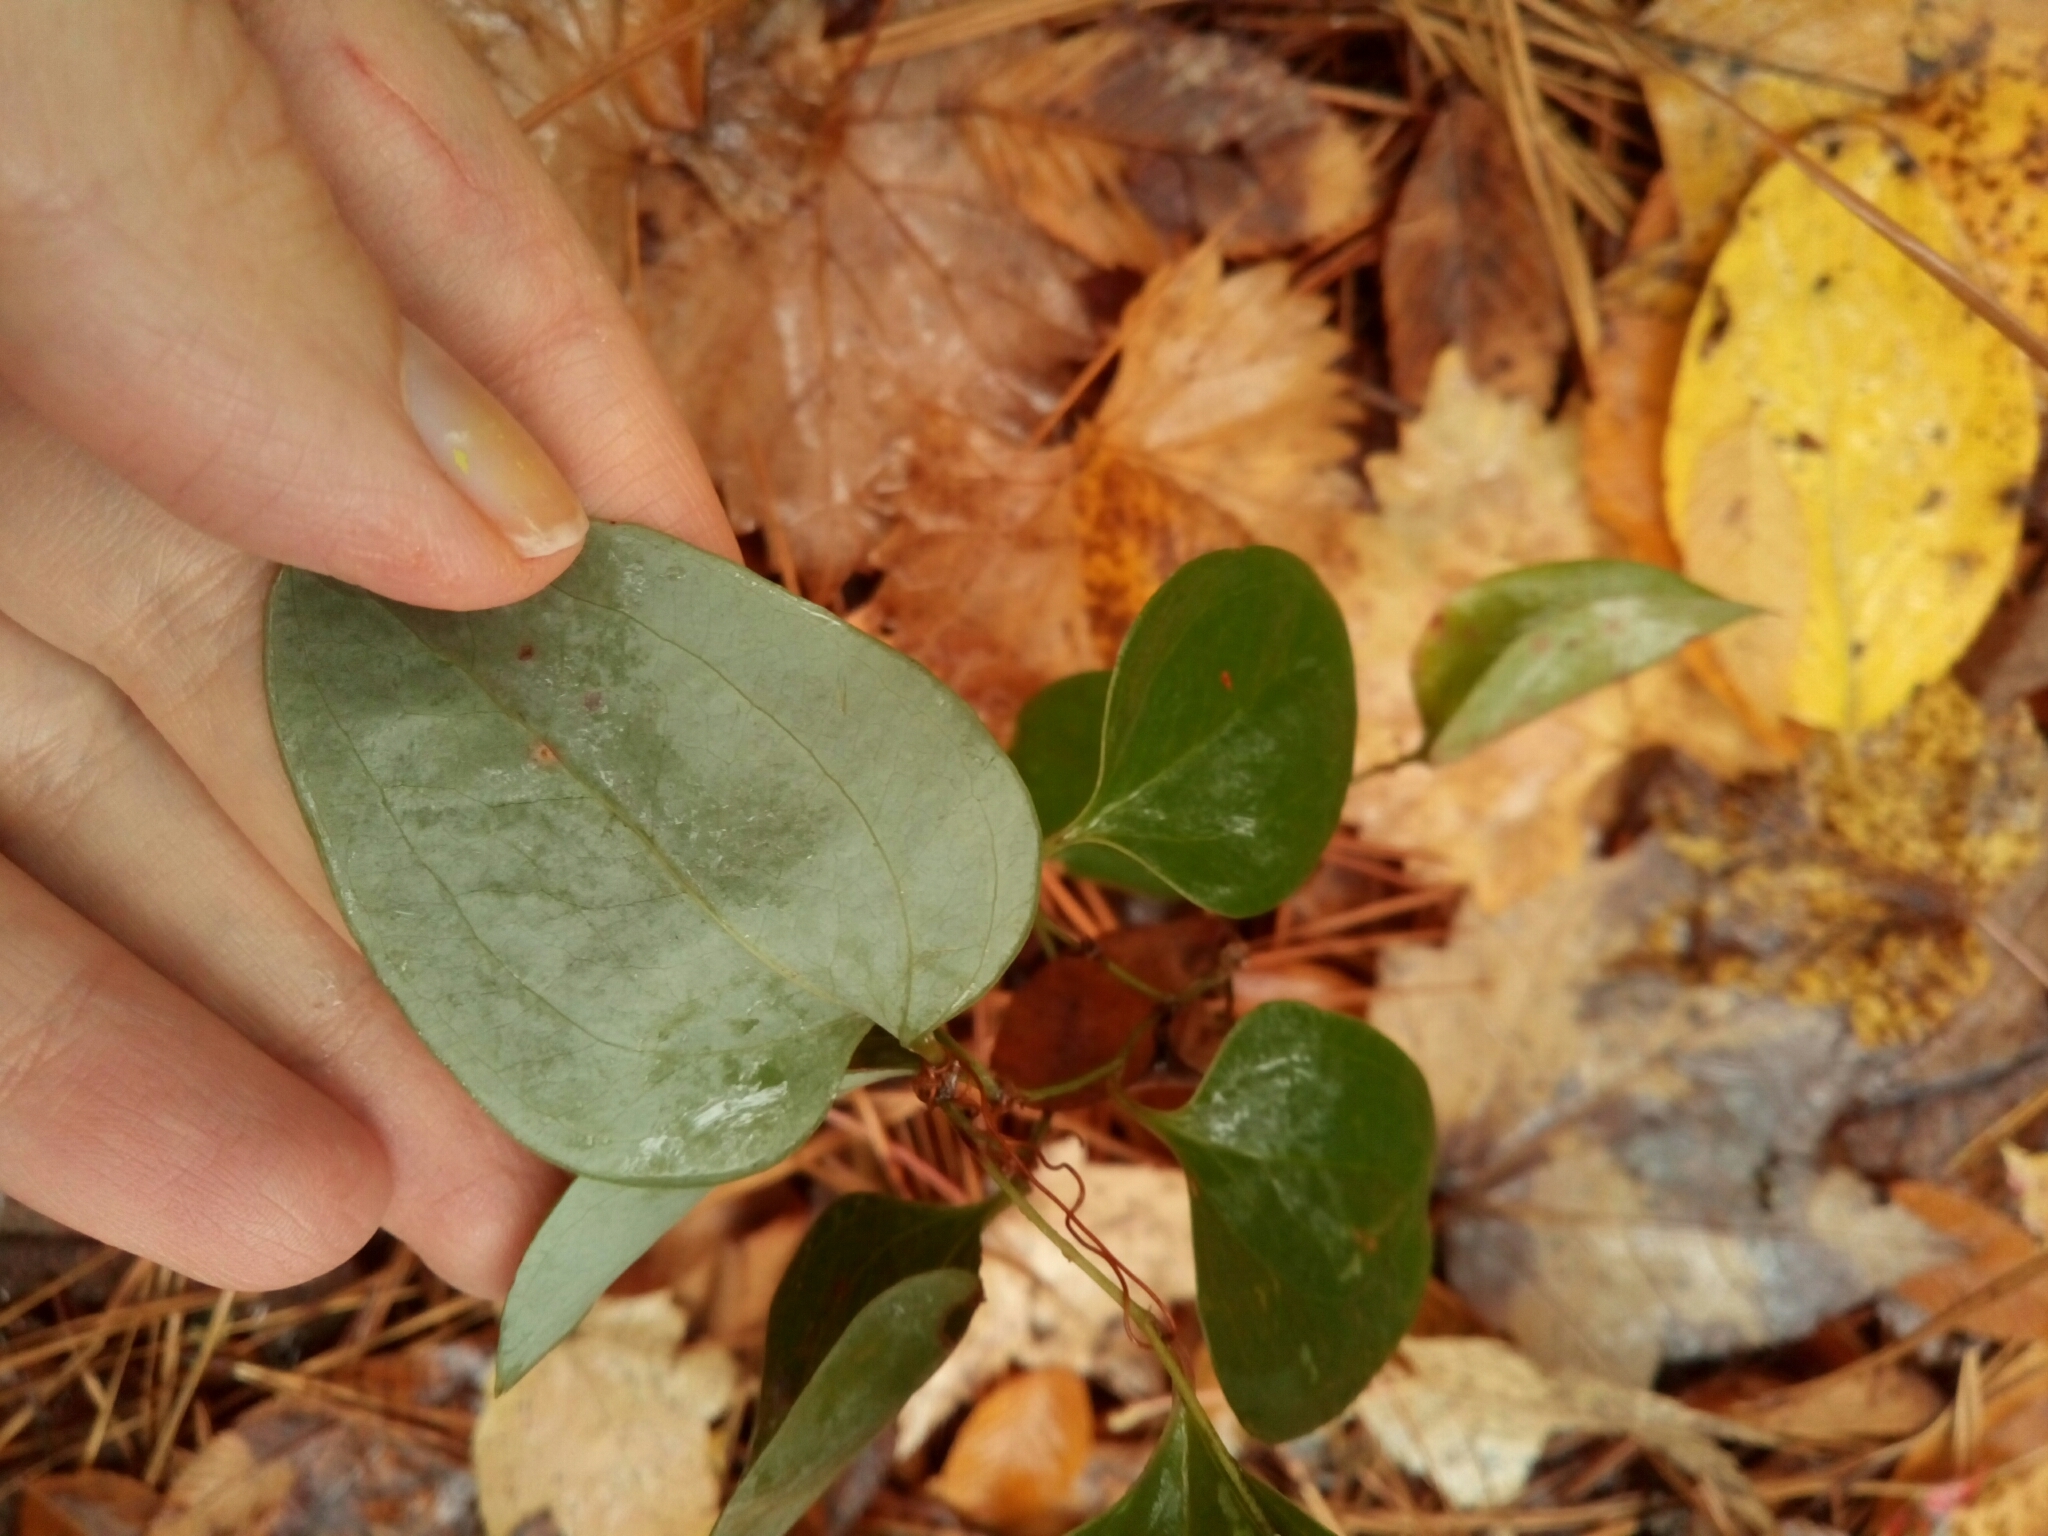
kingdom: Plantae
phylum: Tracheophyta
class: Liliopsida
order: Liliales
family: Smilacaceae
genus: Smilax
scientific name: Smilax glauca
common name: Cat greenbrier
